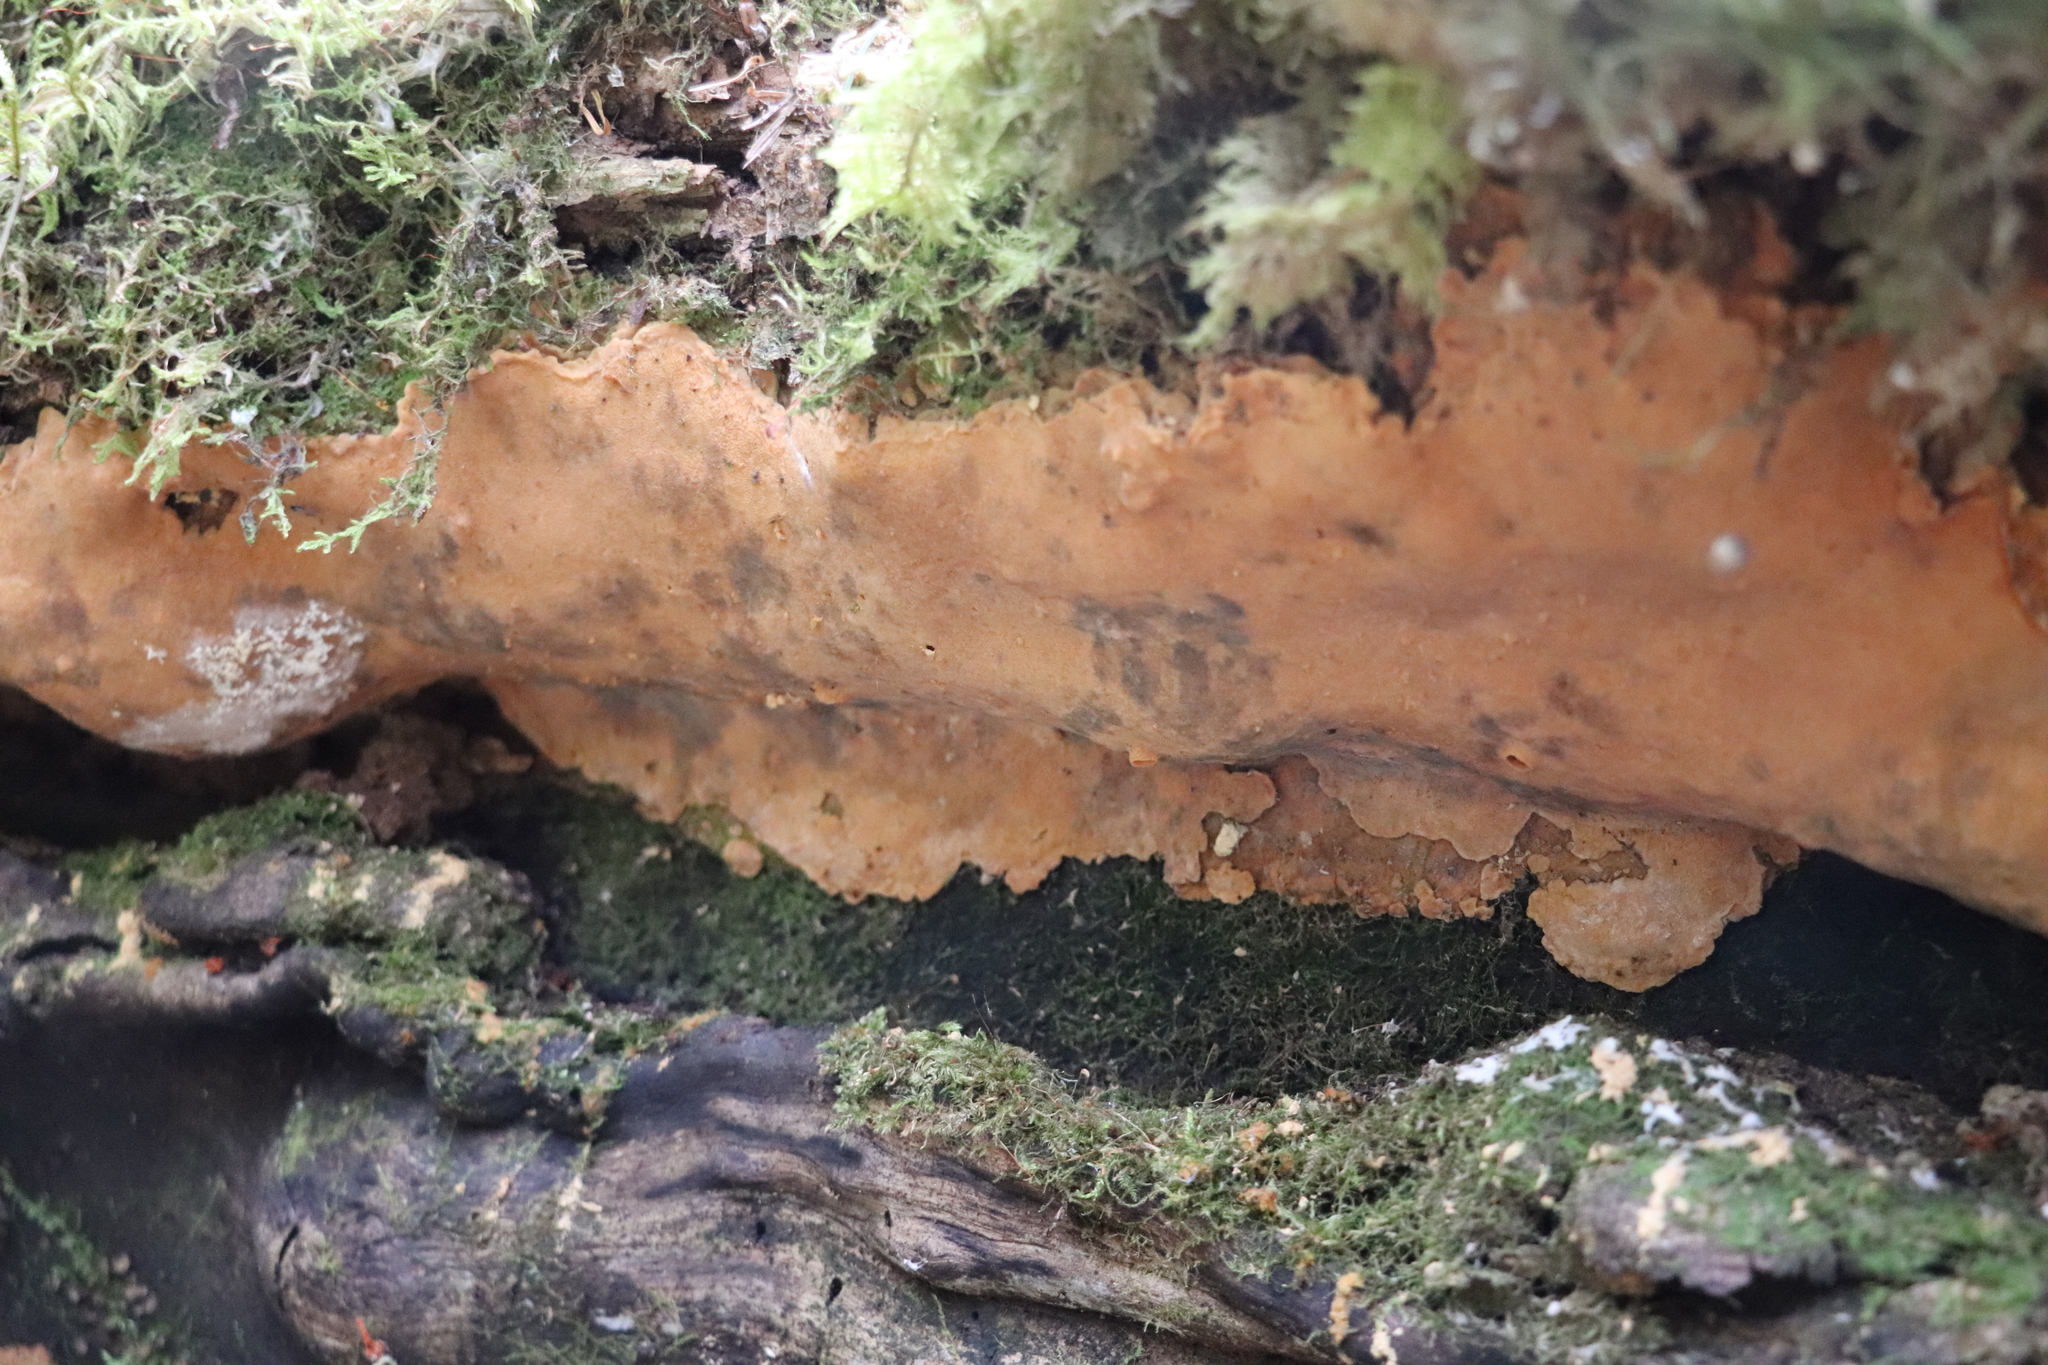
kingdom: Fungi
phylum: Basidiomycota
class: Agaricomycetes
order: Polyporales
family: Meripilaceae
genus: Rigidoporus
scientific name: Rigidoporus crocatus
